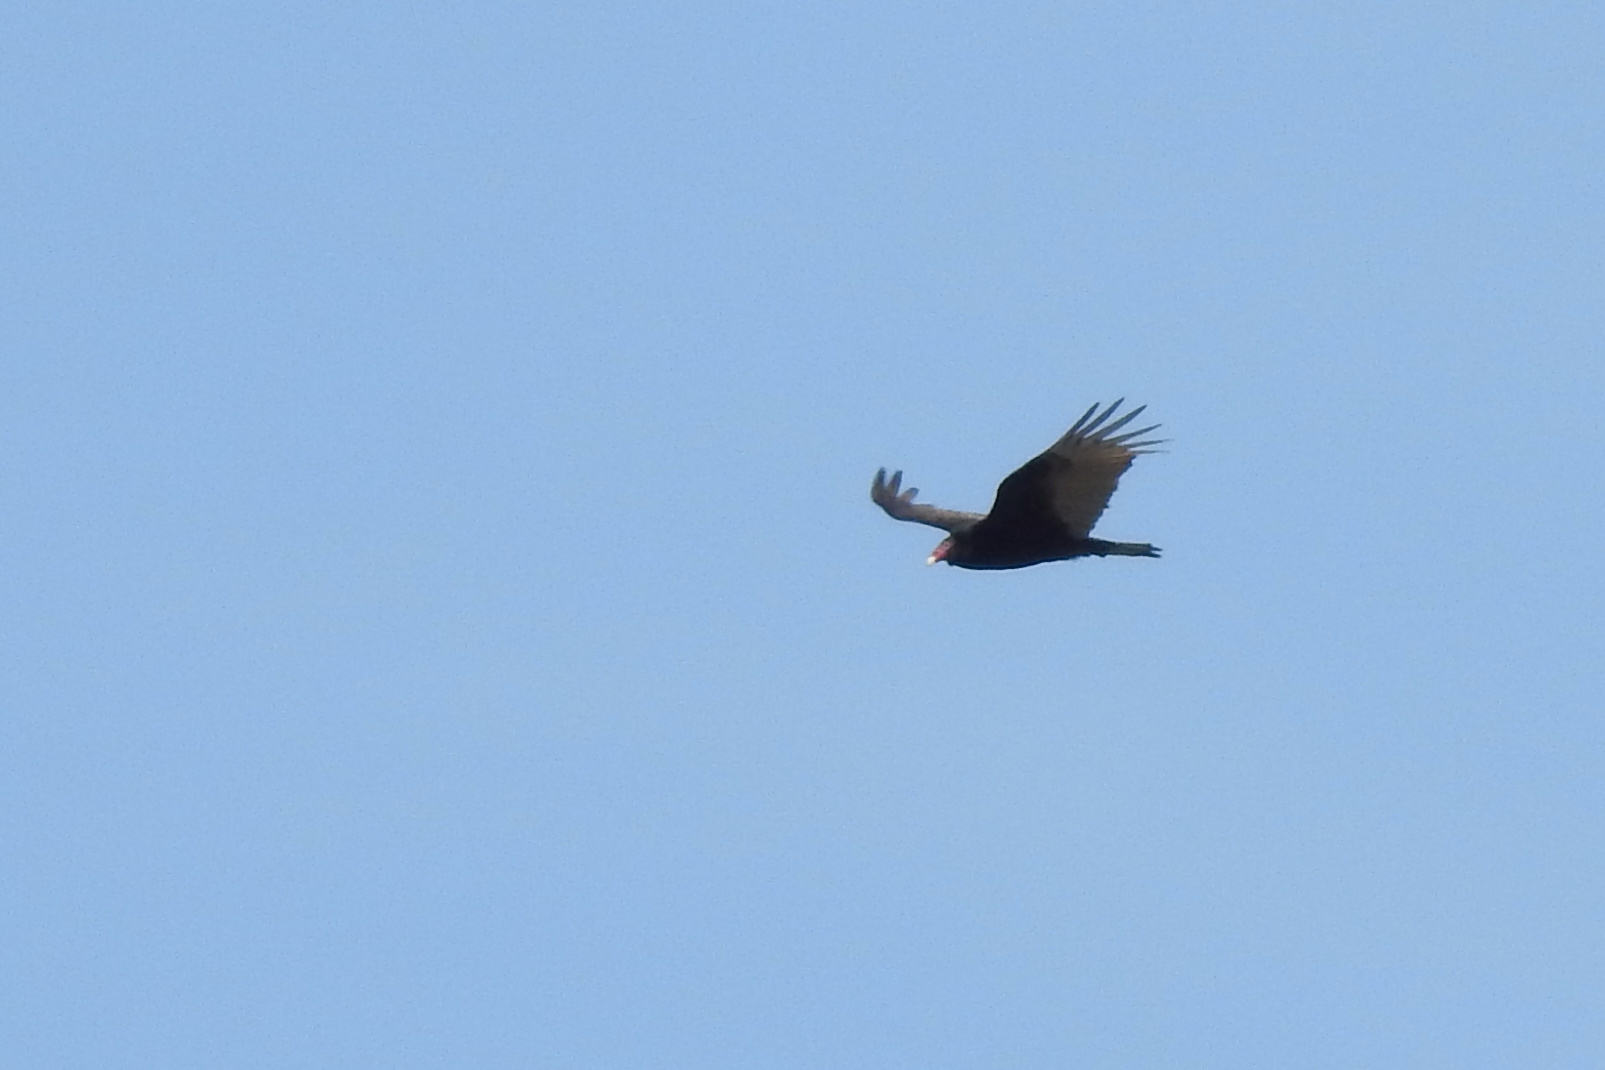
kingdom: Animalia
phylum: Chordata
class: Aves
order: Accipitriformes
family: Cathartidae
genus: Cathartes
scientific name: Cathartes aura
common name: Turkey vulture
